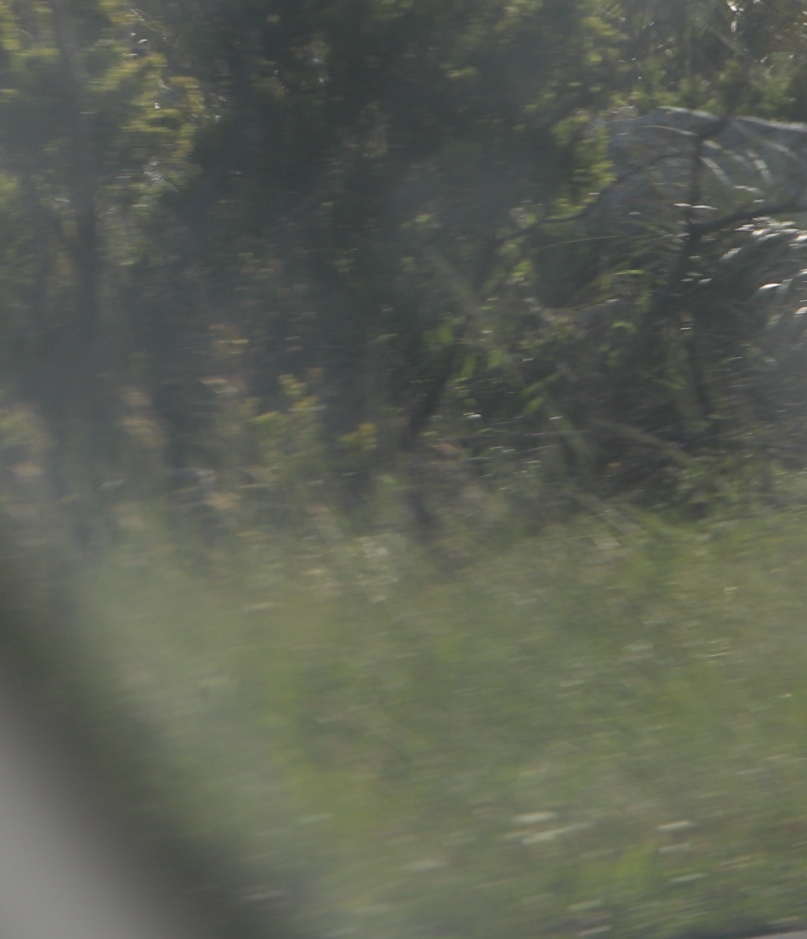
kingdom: Plantae
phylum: Tracheophyta
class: Magnoliopsida
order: Lamiales
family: Scrophulariaceae
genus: Verbascum
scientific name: Verbascum virgatum
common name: Twiggy mullein
